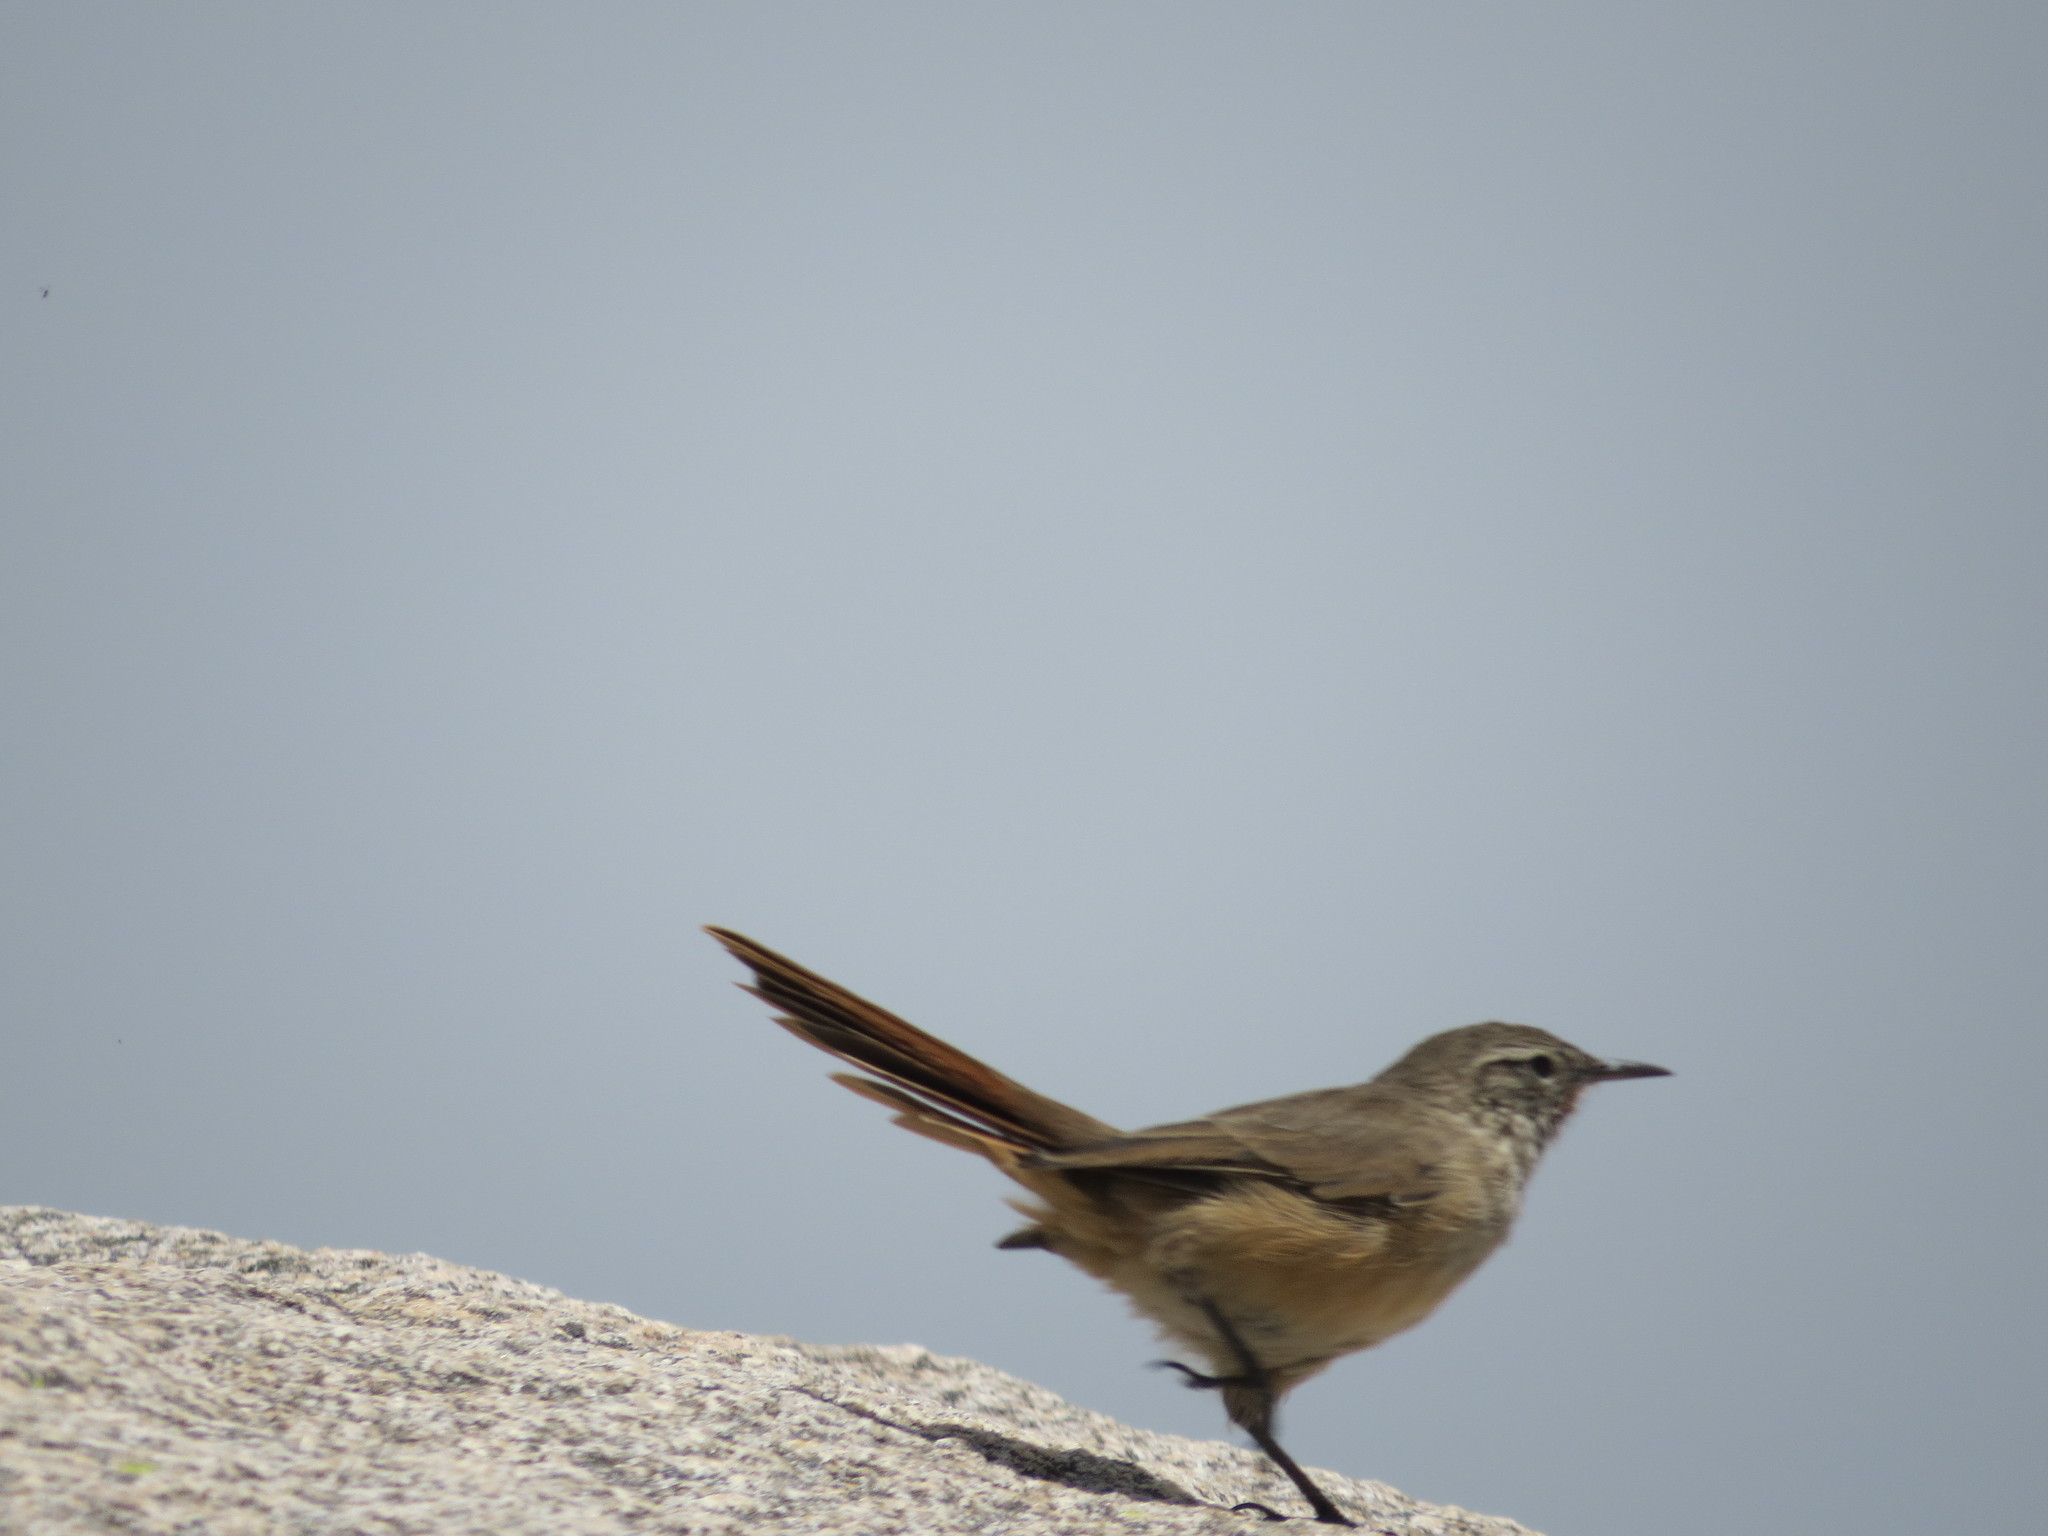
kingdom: Animalia
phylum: Chordata
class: Aves
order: Passeriformes
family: Furnariidae
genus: Asthenes
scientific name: Asthenes modesta
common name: Cordilleran canastero
